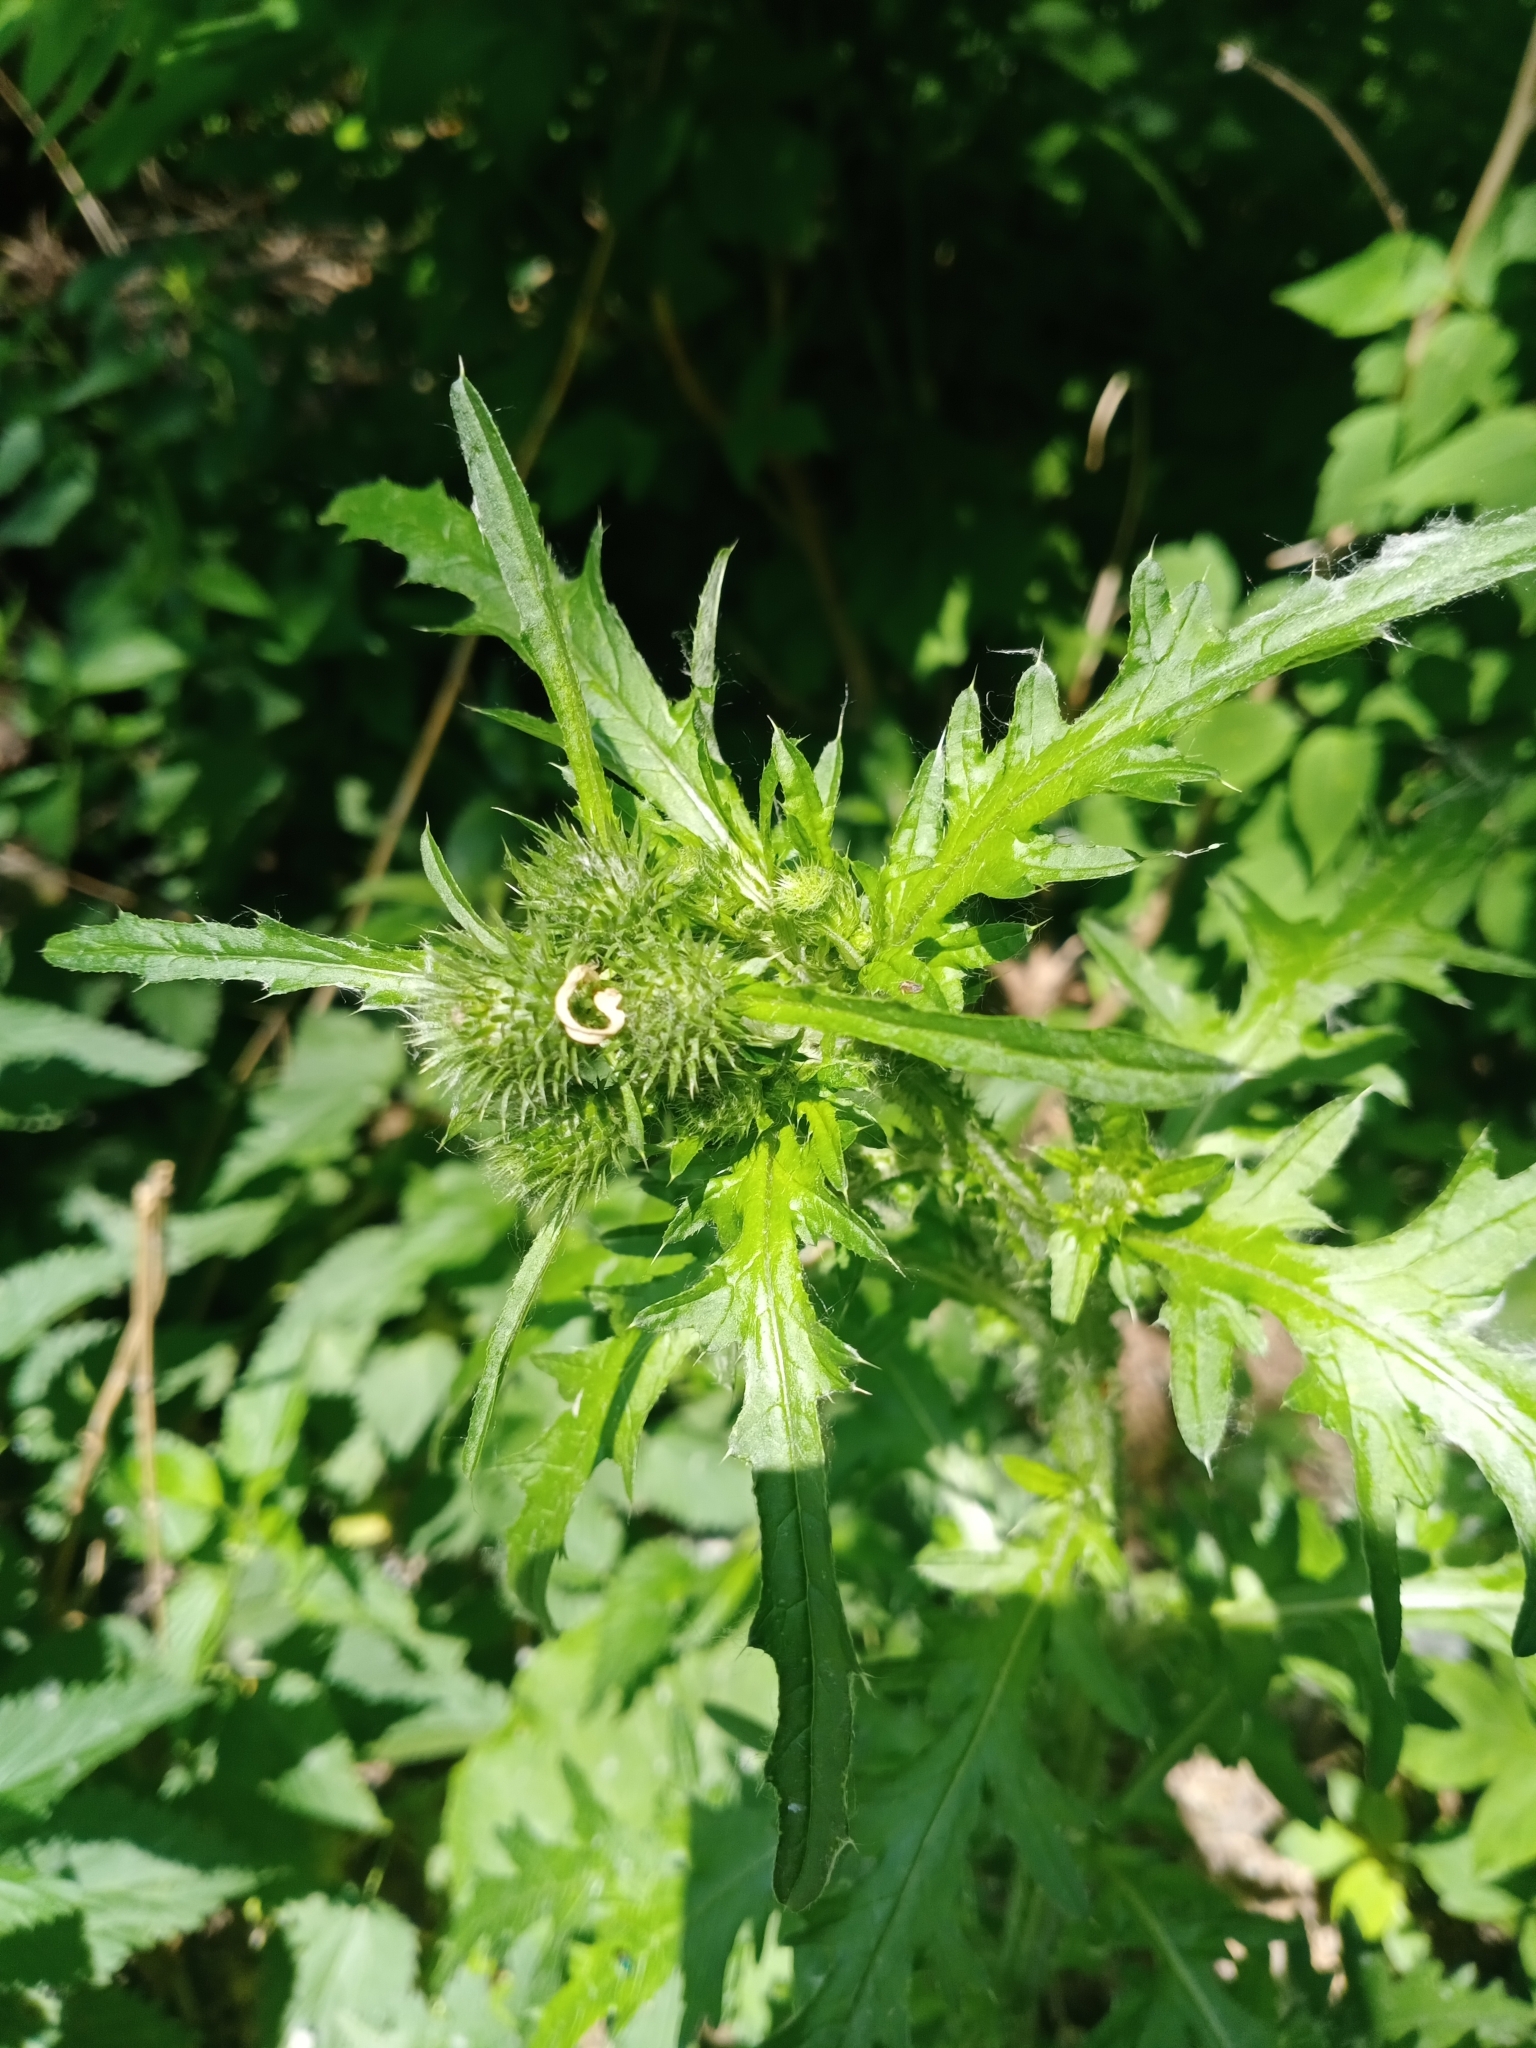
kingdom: Plantae
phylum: Tracheophyta
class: Magnoliopsida
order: Asterales
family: Asteraceae
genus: Carduus
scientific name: Carduus crispus
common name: Welted thistle
